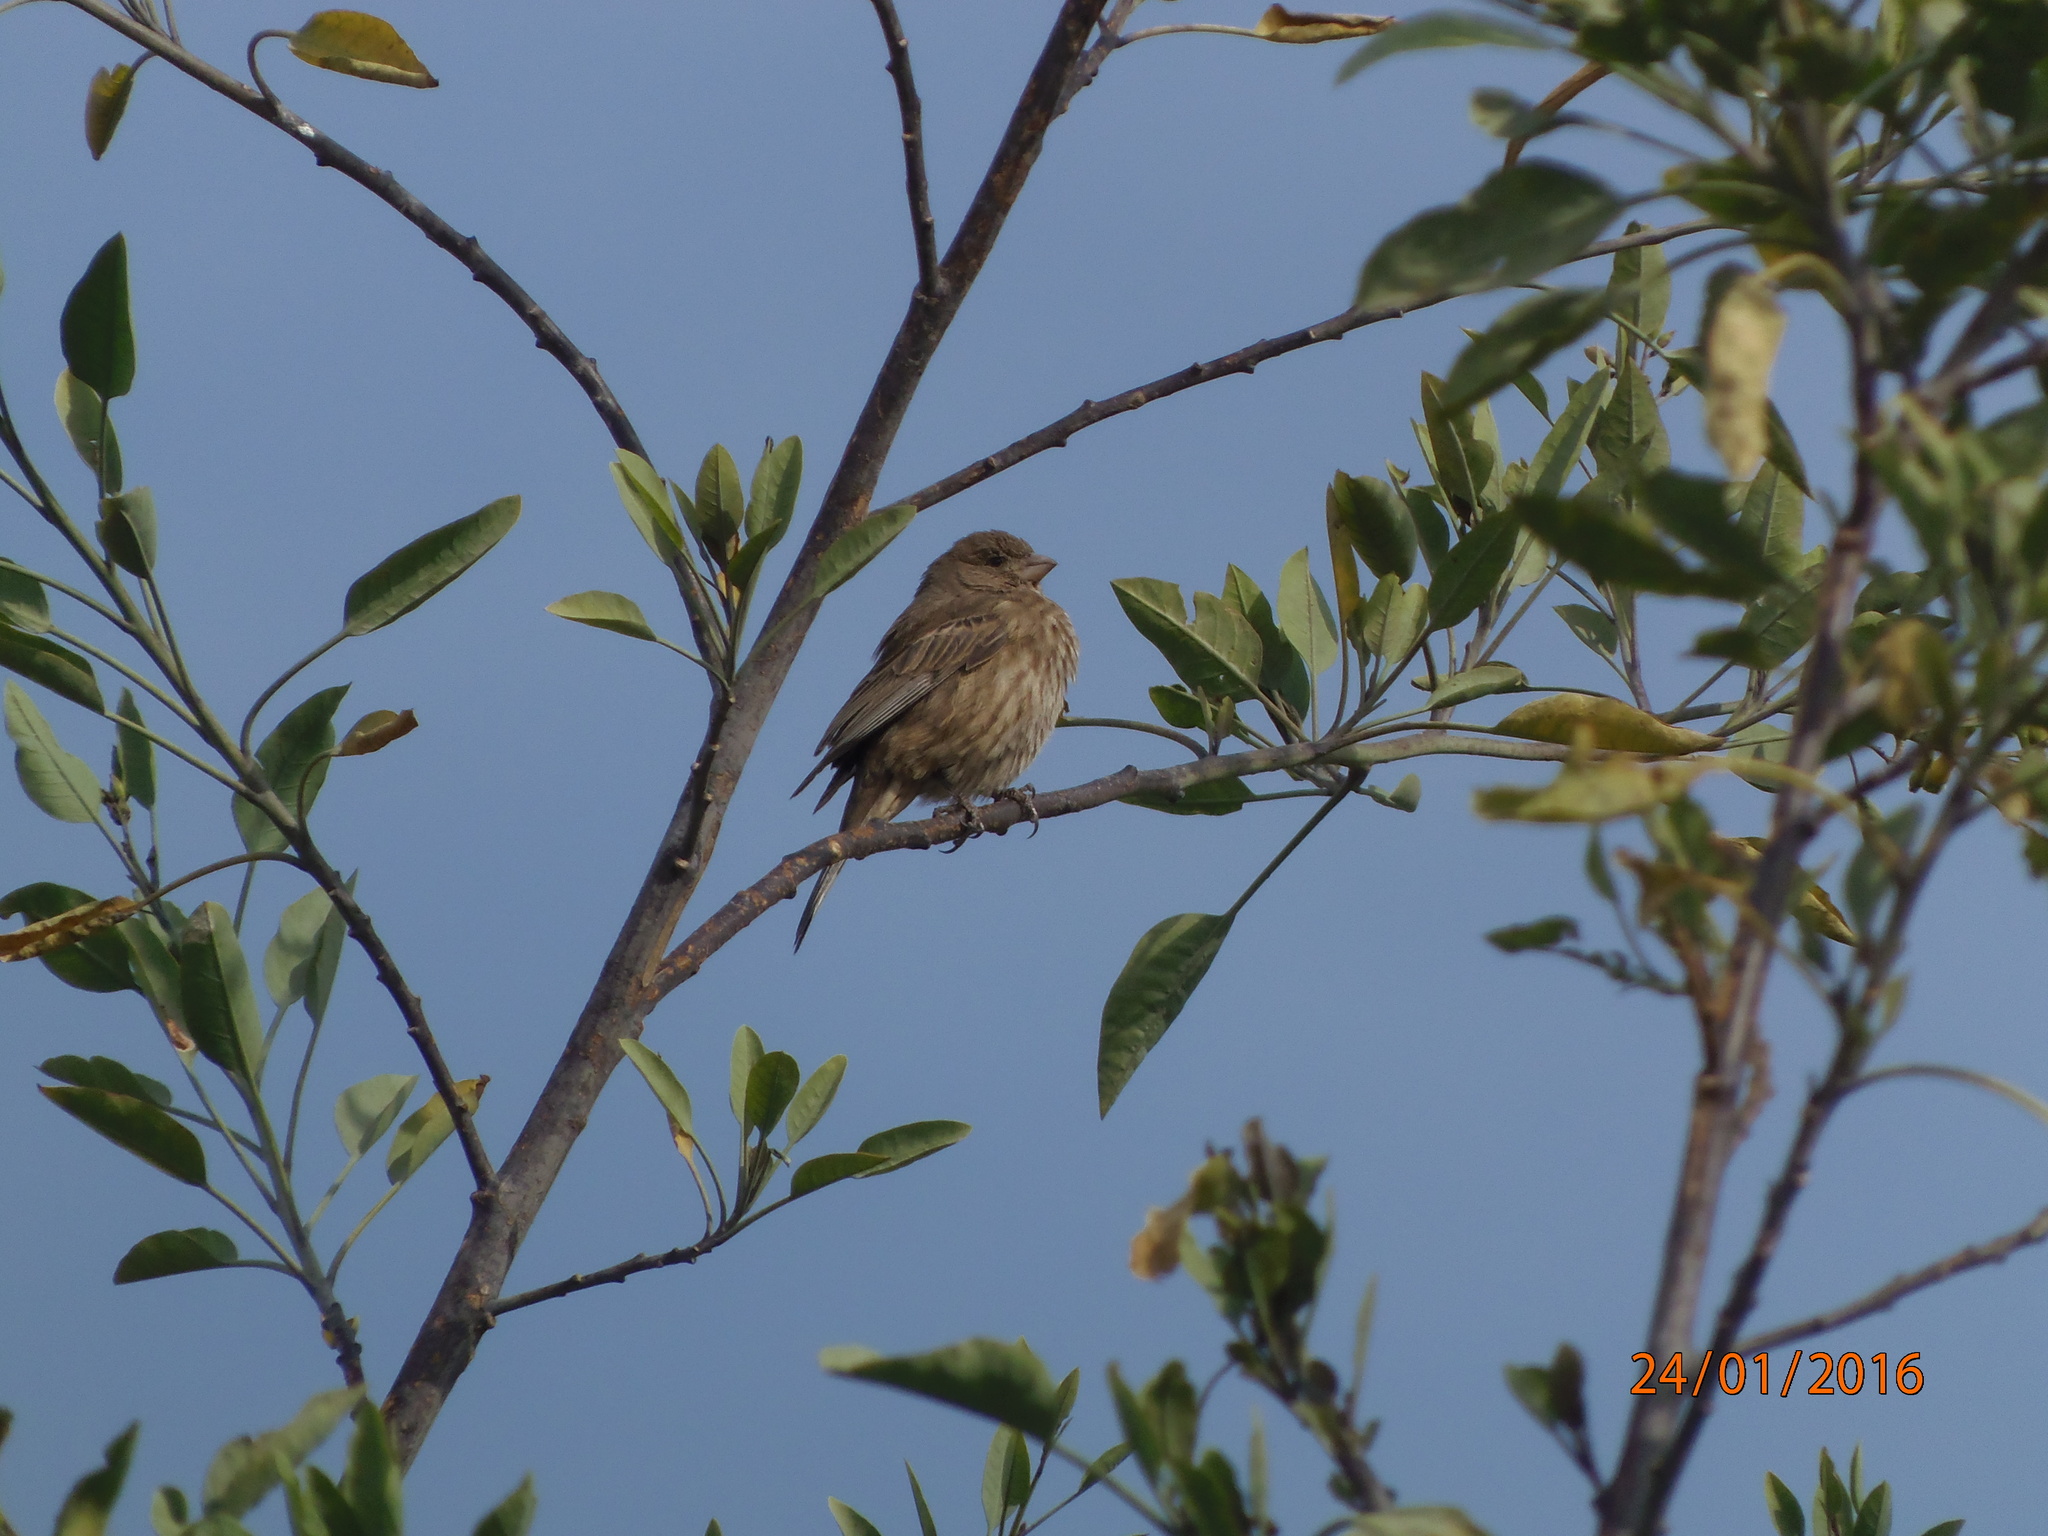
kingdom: Animalia
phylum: Chordata
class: Aves
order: Passeriformes
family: Fringillidae
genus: Haemorhous
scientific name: Haemorhous mexicanus
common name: House finch
